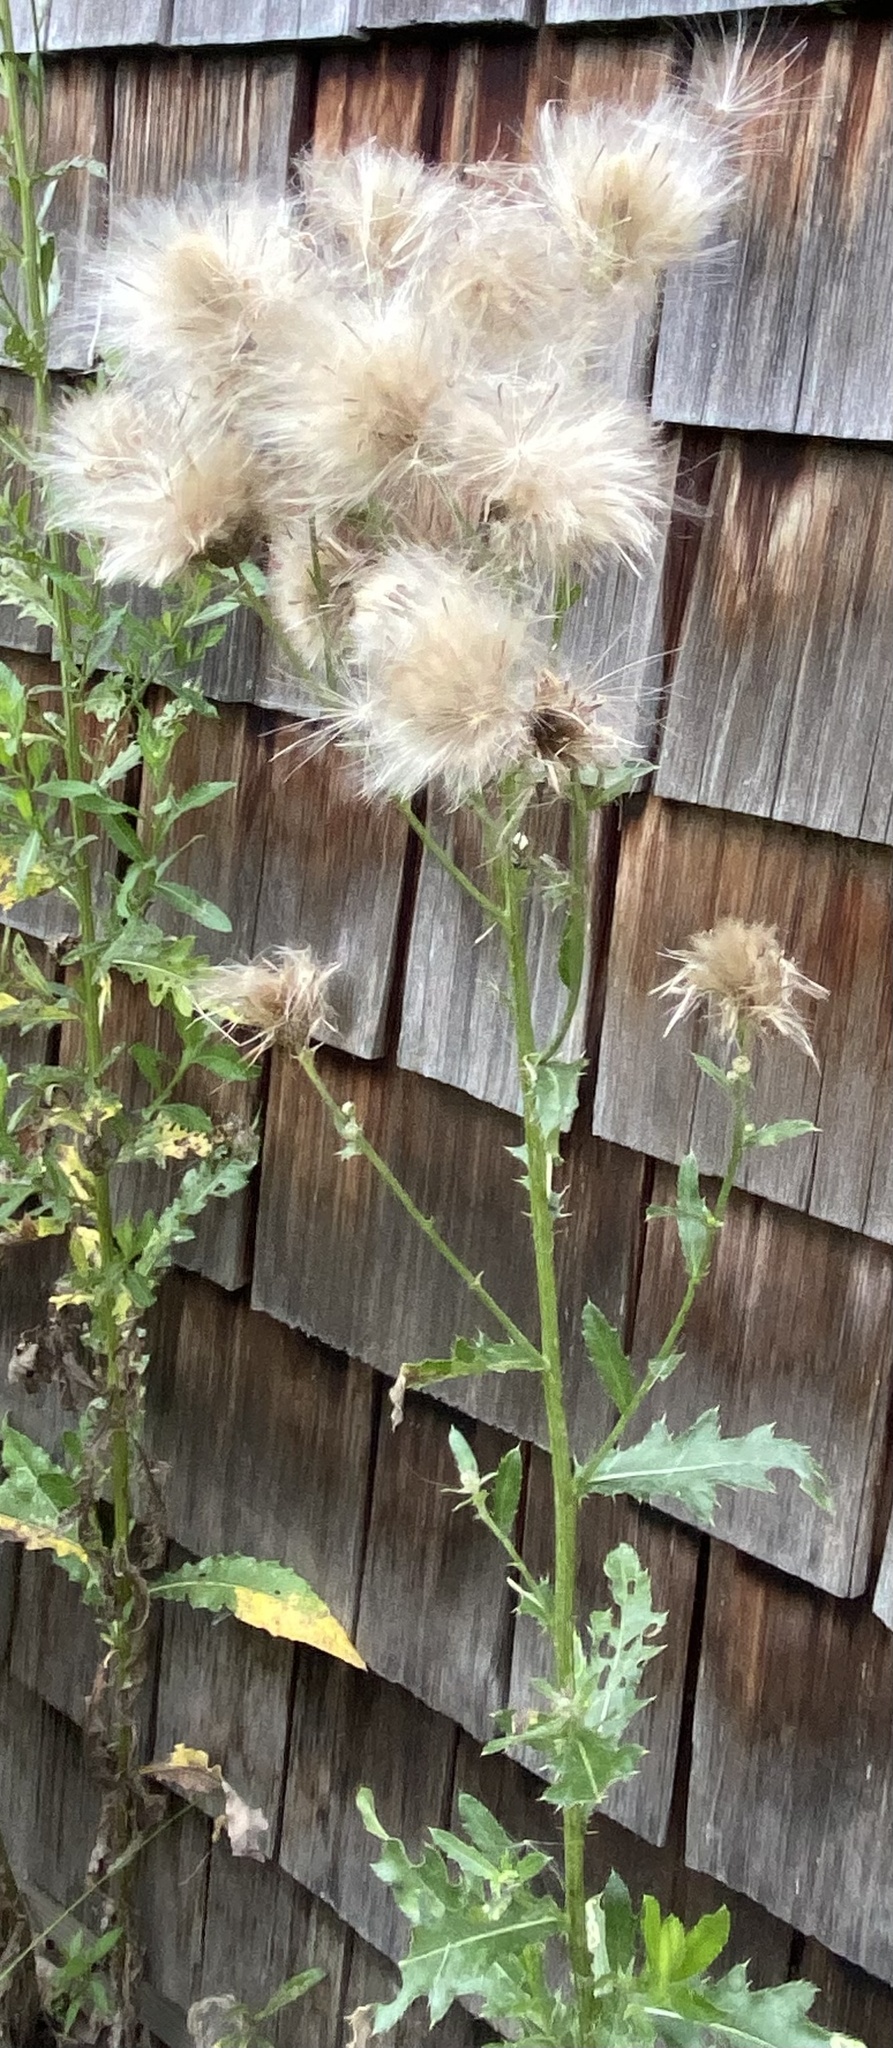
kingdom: Plantae
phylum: Tracheophyta
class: Magnoliopsida
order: Asterales
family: Asteraceae
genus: Cirsium
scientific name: Cirsium arvense
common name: Creeping thistle
